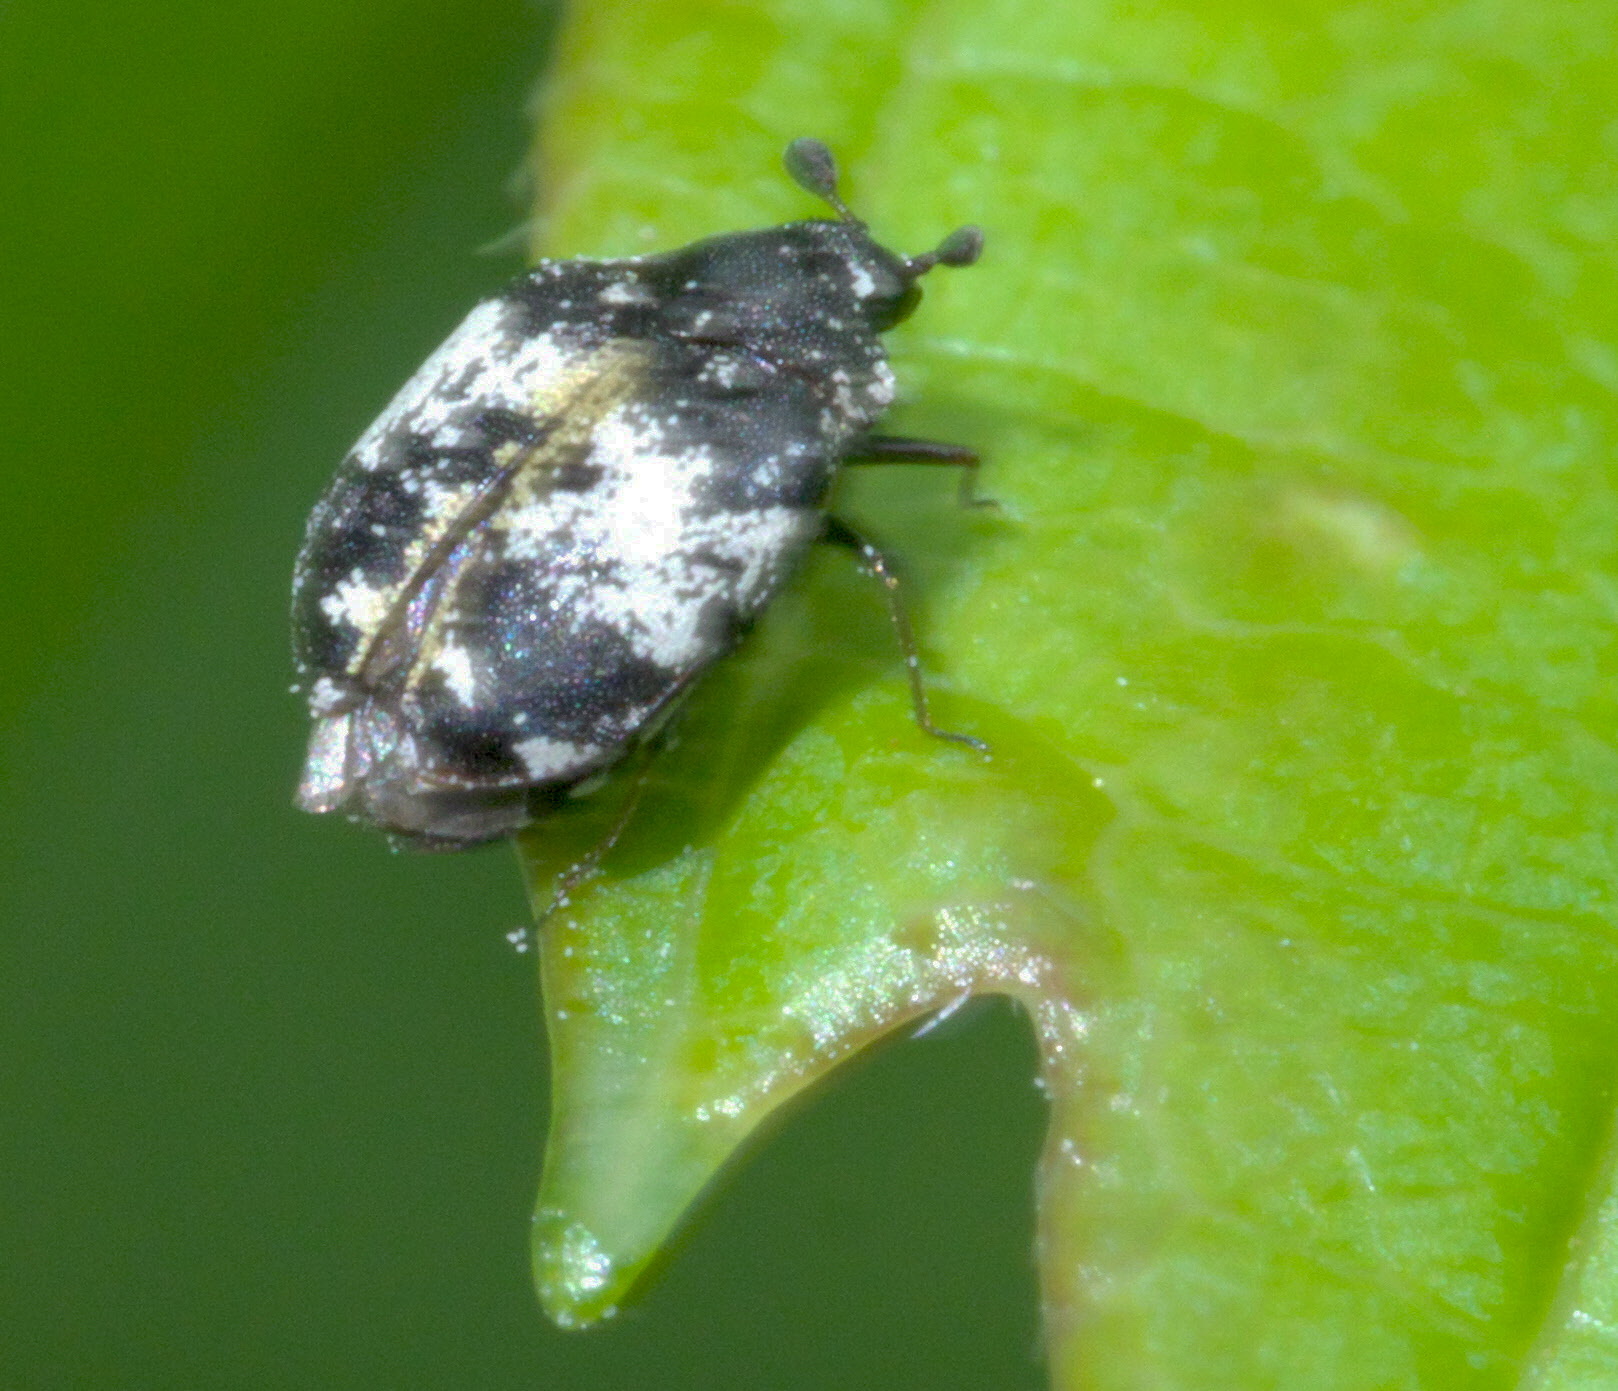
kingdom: Animalia
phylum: Arthropoda
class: Insecta
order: Coleoptera
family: Dermestidae
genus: Anthrenus
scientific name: Anthrenus thoracicus
